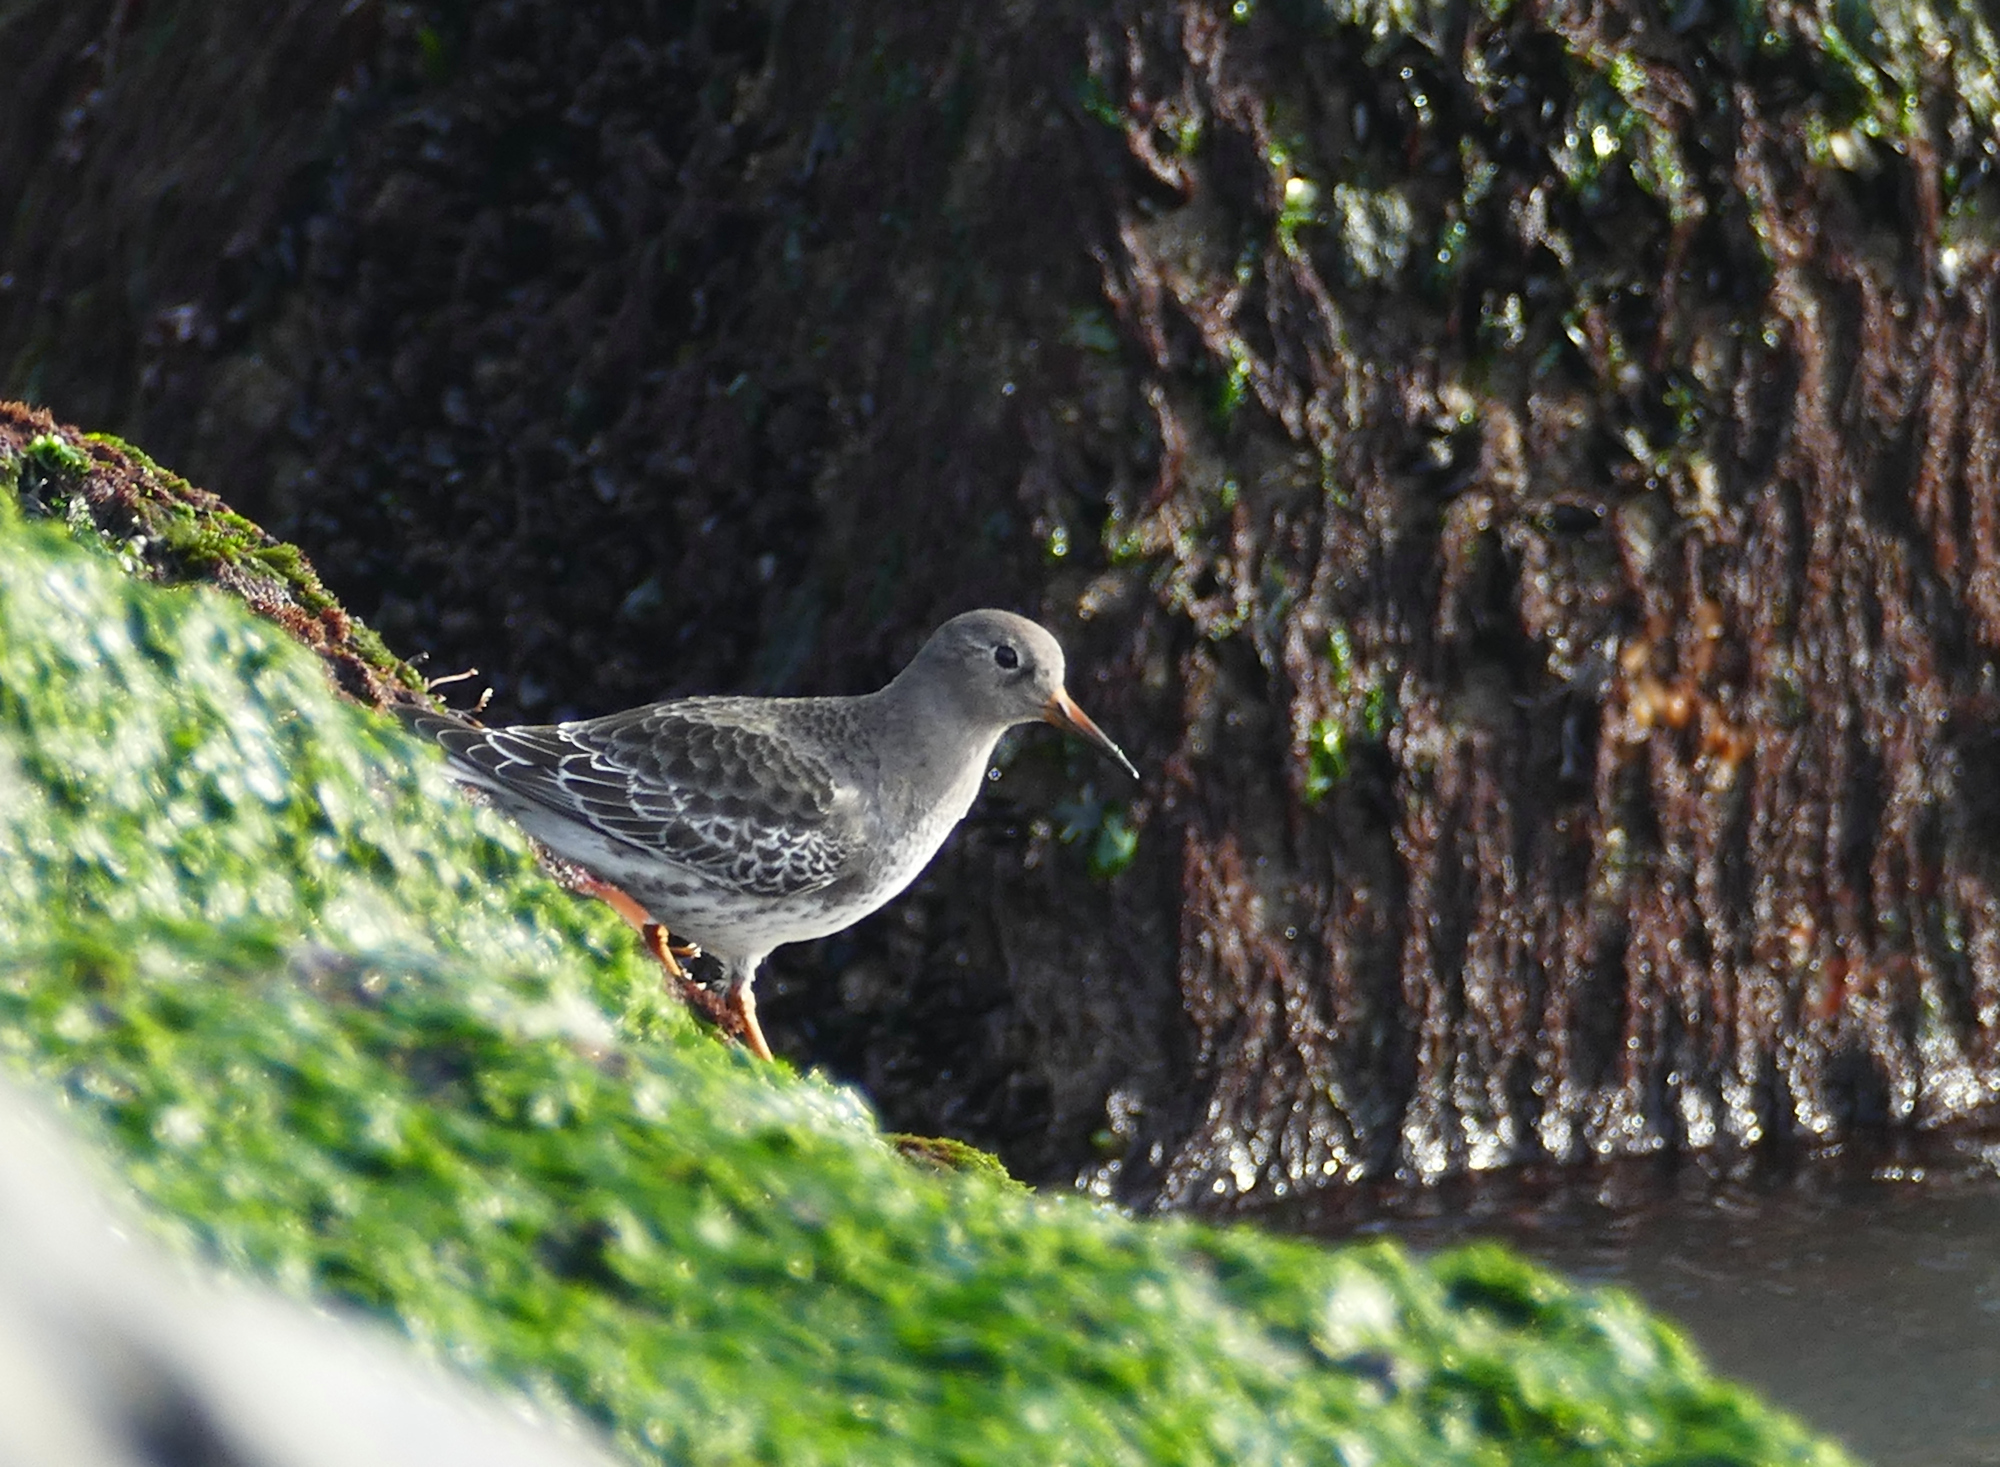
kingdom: Animalia
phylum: Chordata
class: Aves
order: Charadriiformes
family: Scolopacidae
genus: Calidris
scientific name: Calidris maritima
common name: Purple sandpiper
